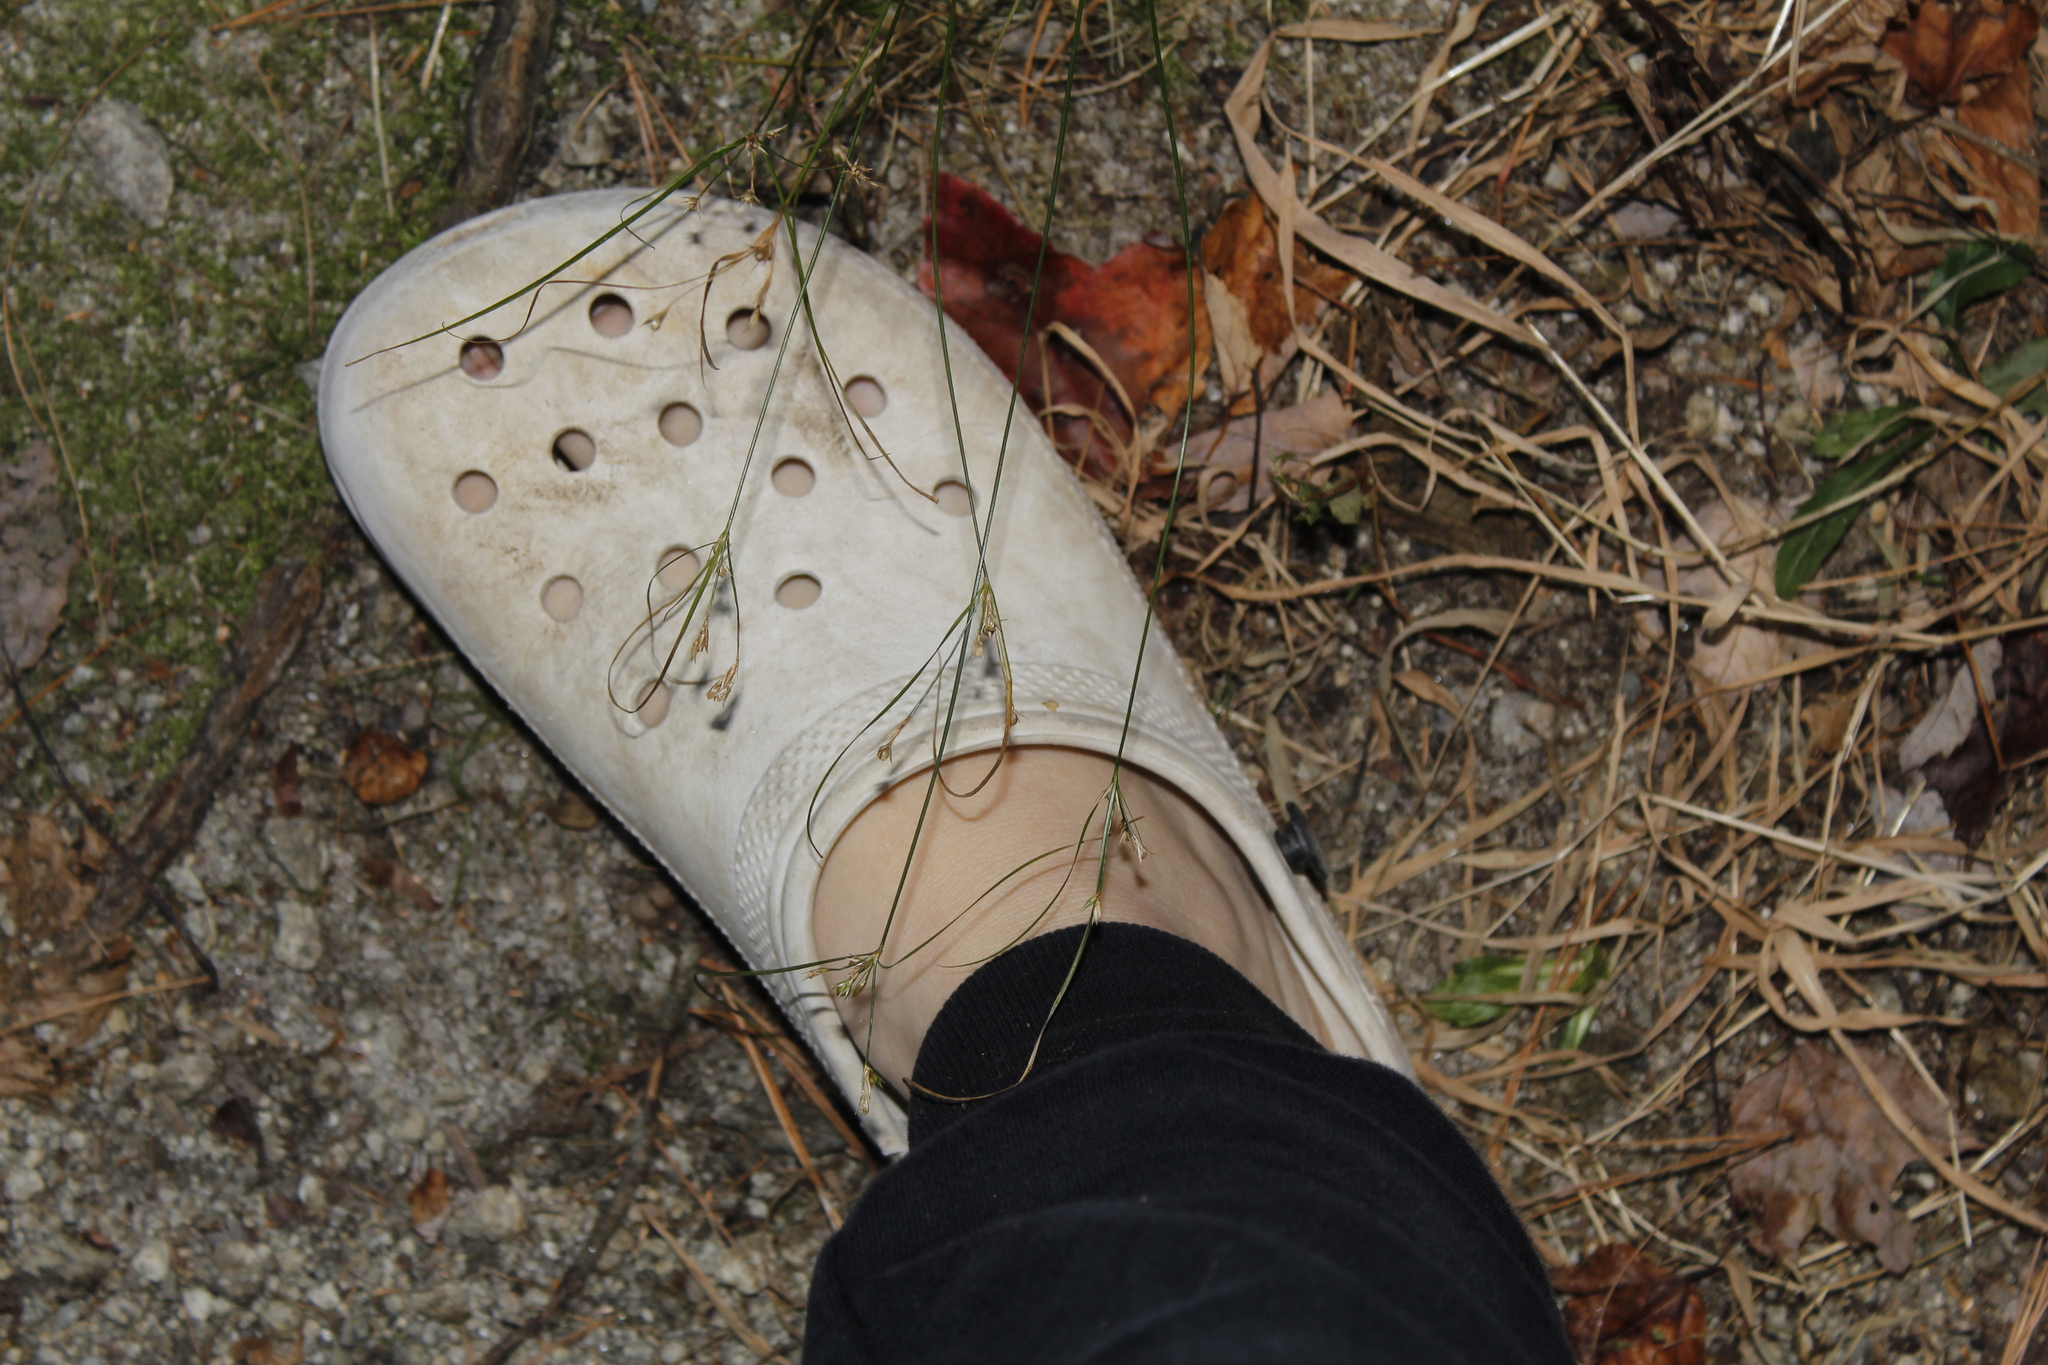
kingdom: Plantae
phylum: Tracheophyta
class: Liliopsida
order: Poales
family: Juncaceae
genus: Juncus
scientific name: Juncus tenuis
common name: Slender rush
